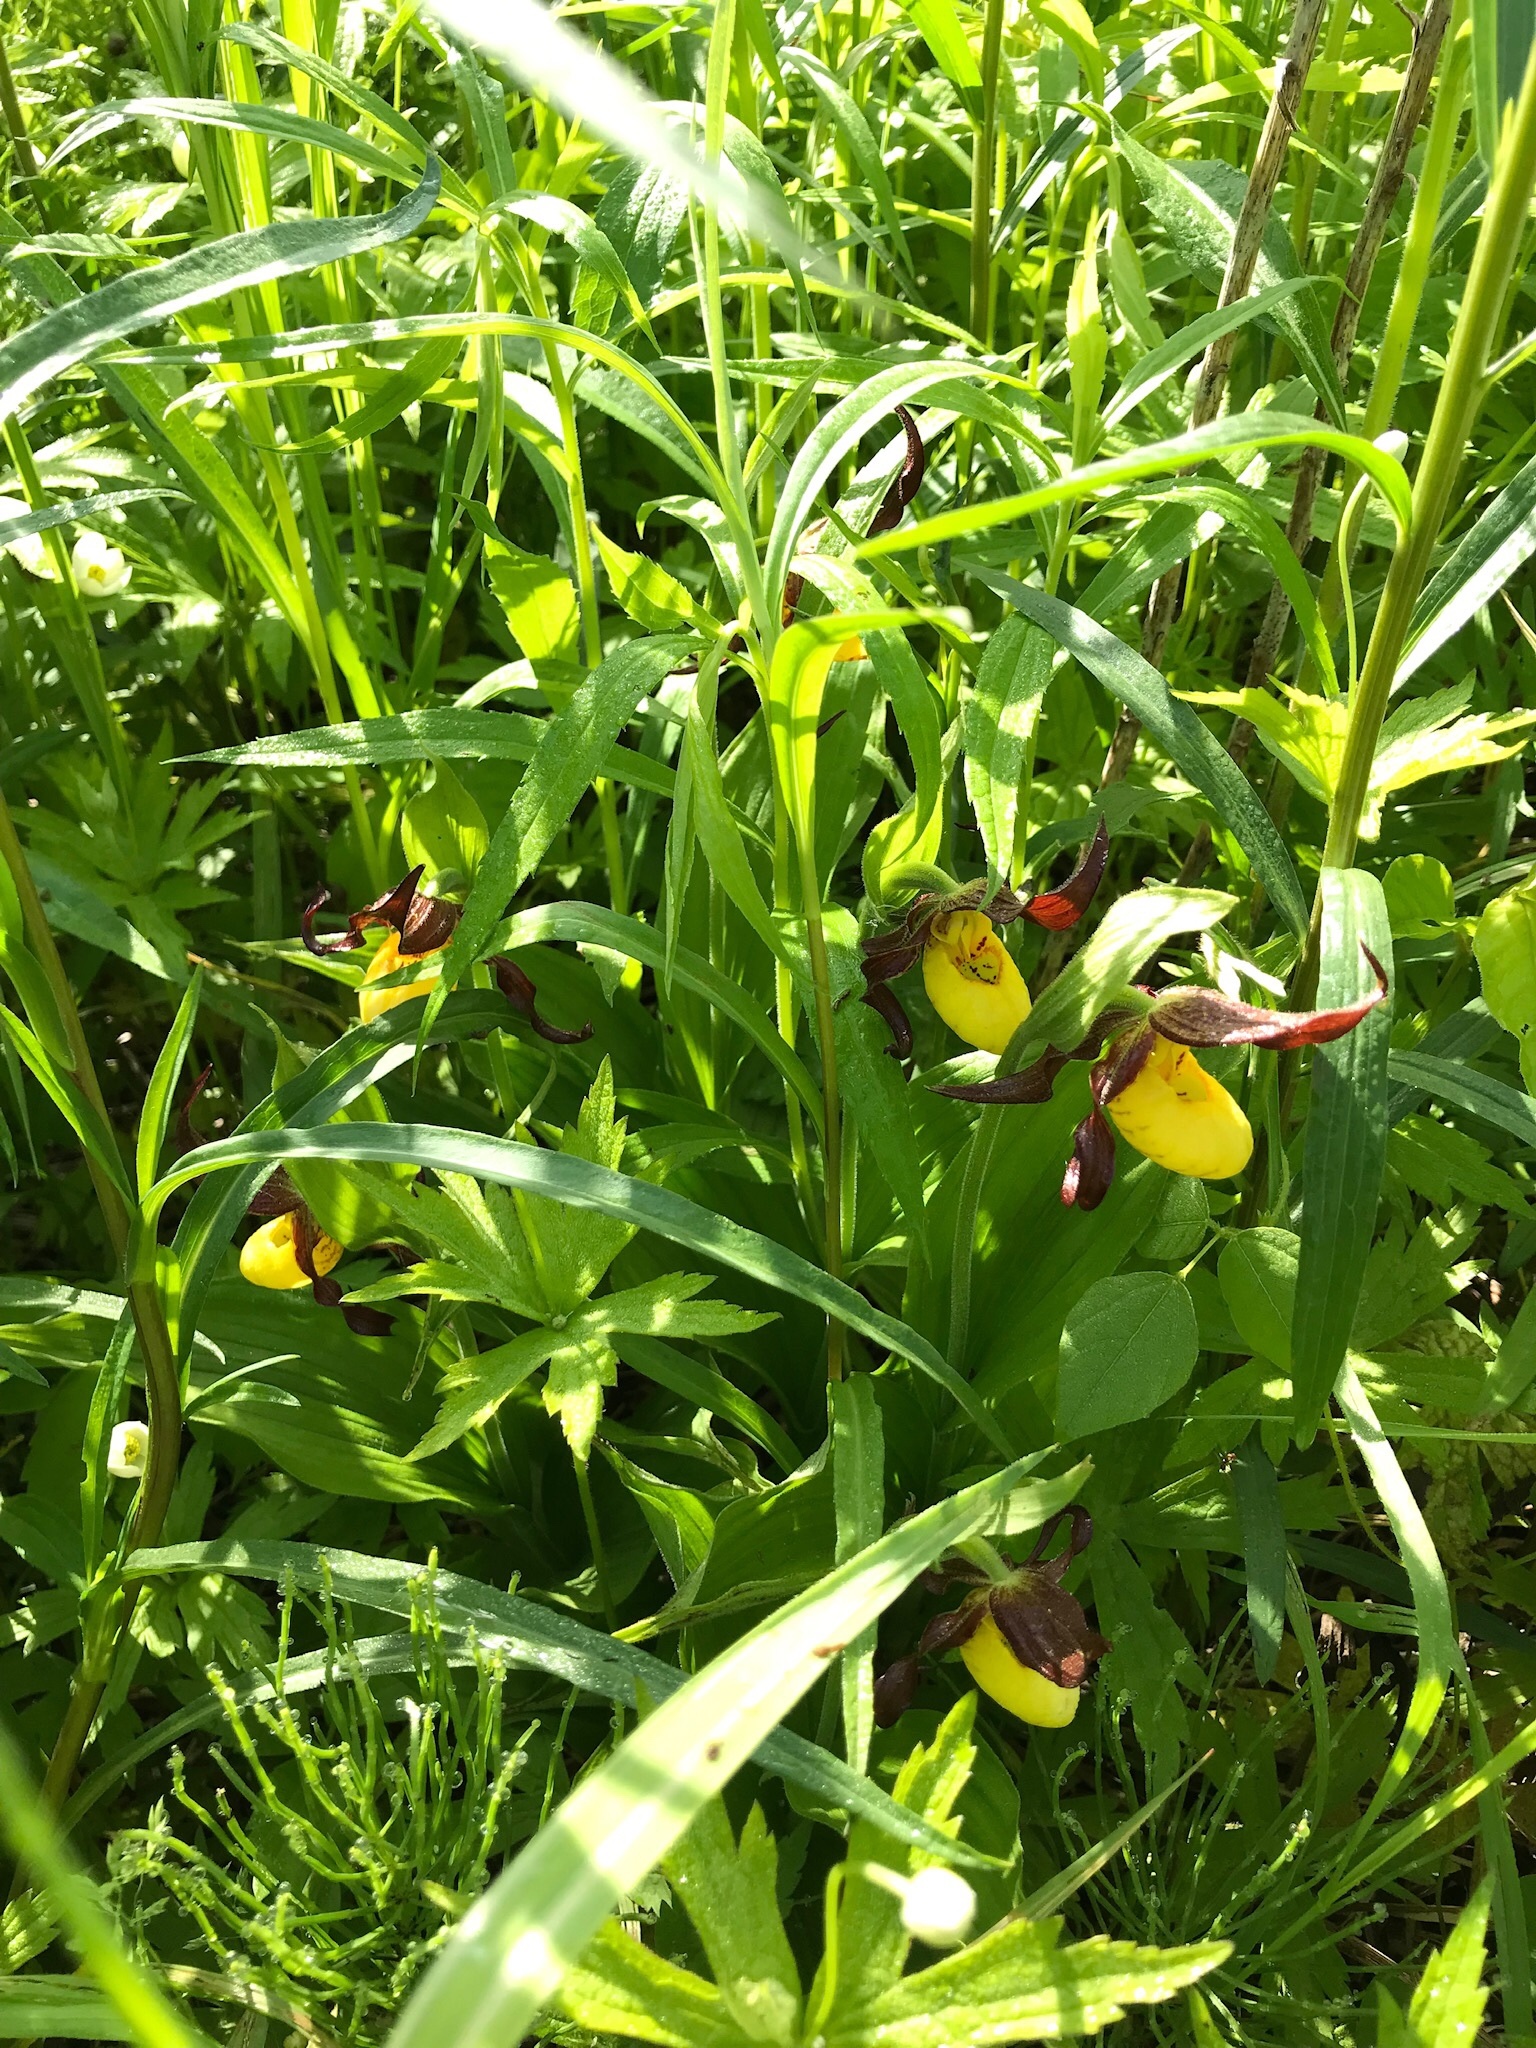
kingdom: Plantae
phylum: Tracheophyta
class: Liliopsida
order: Asparagales
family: Orchidaceae
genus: Cypripedium
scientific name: Cypripedium parviflorum
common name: American yellow lady's-slipper
